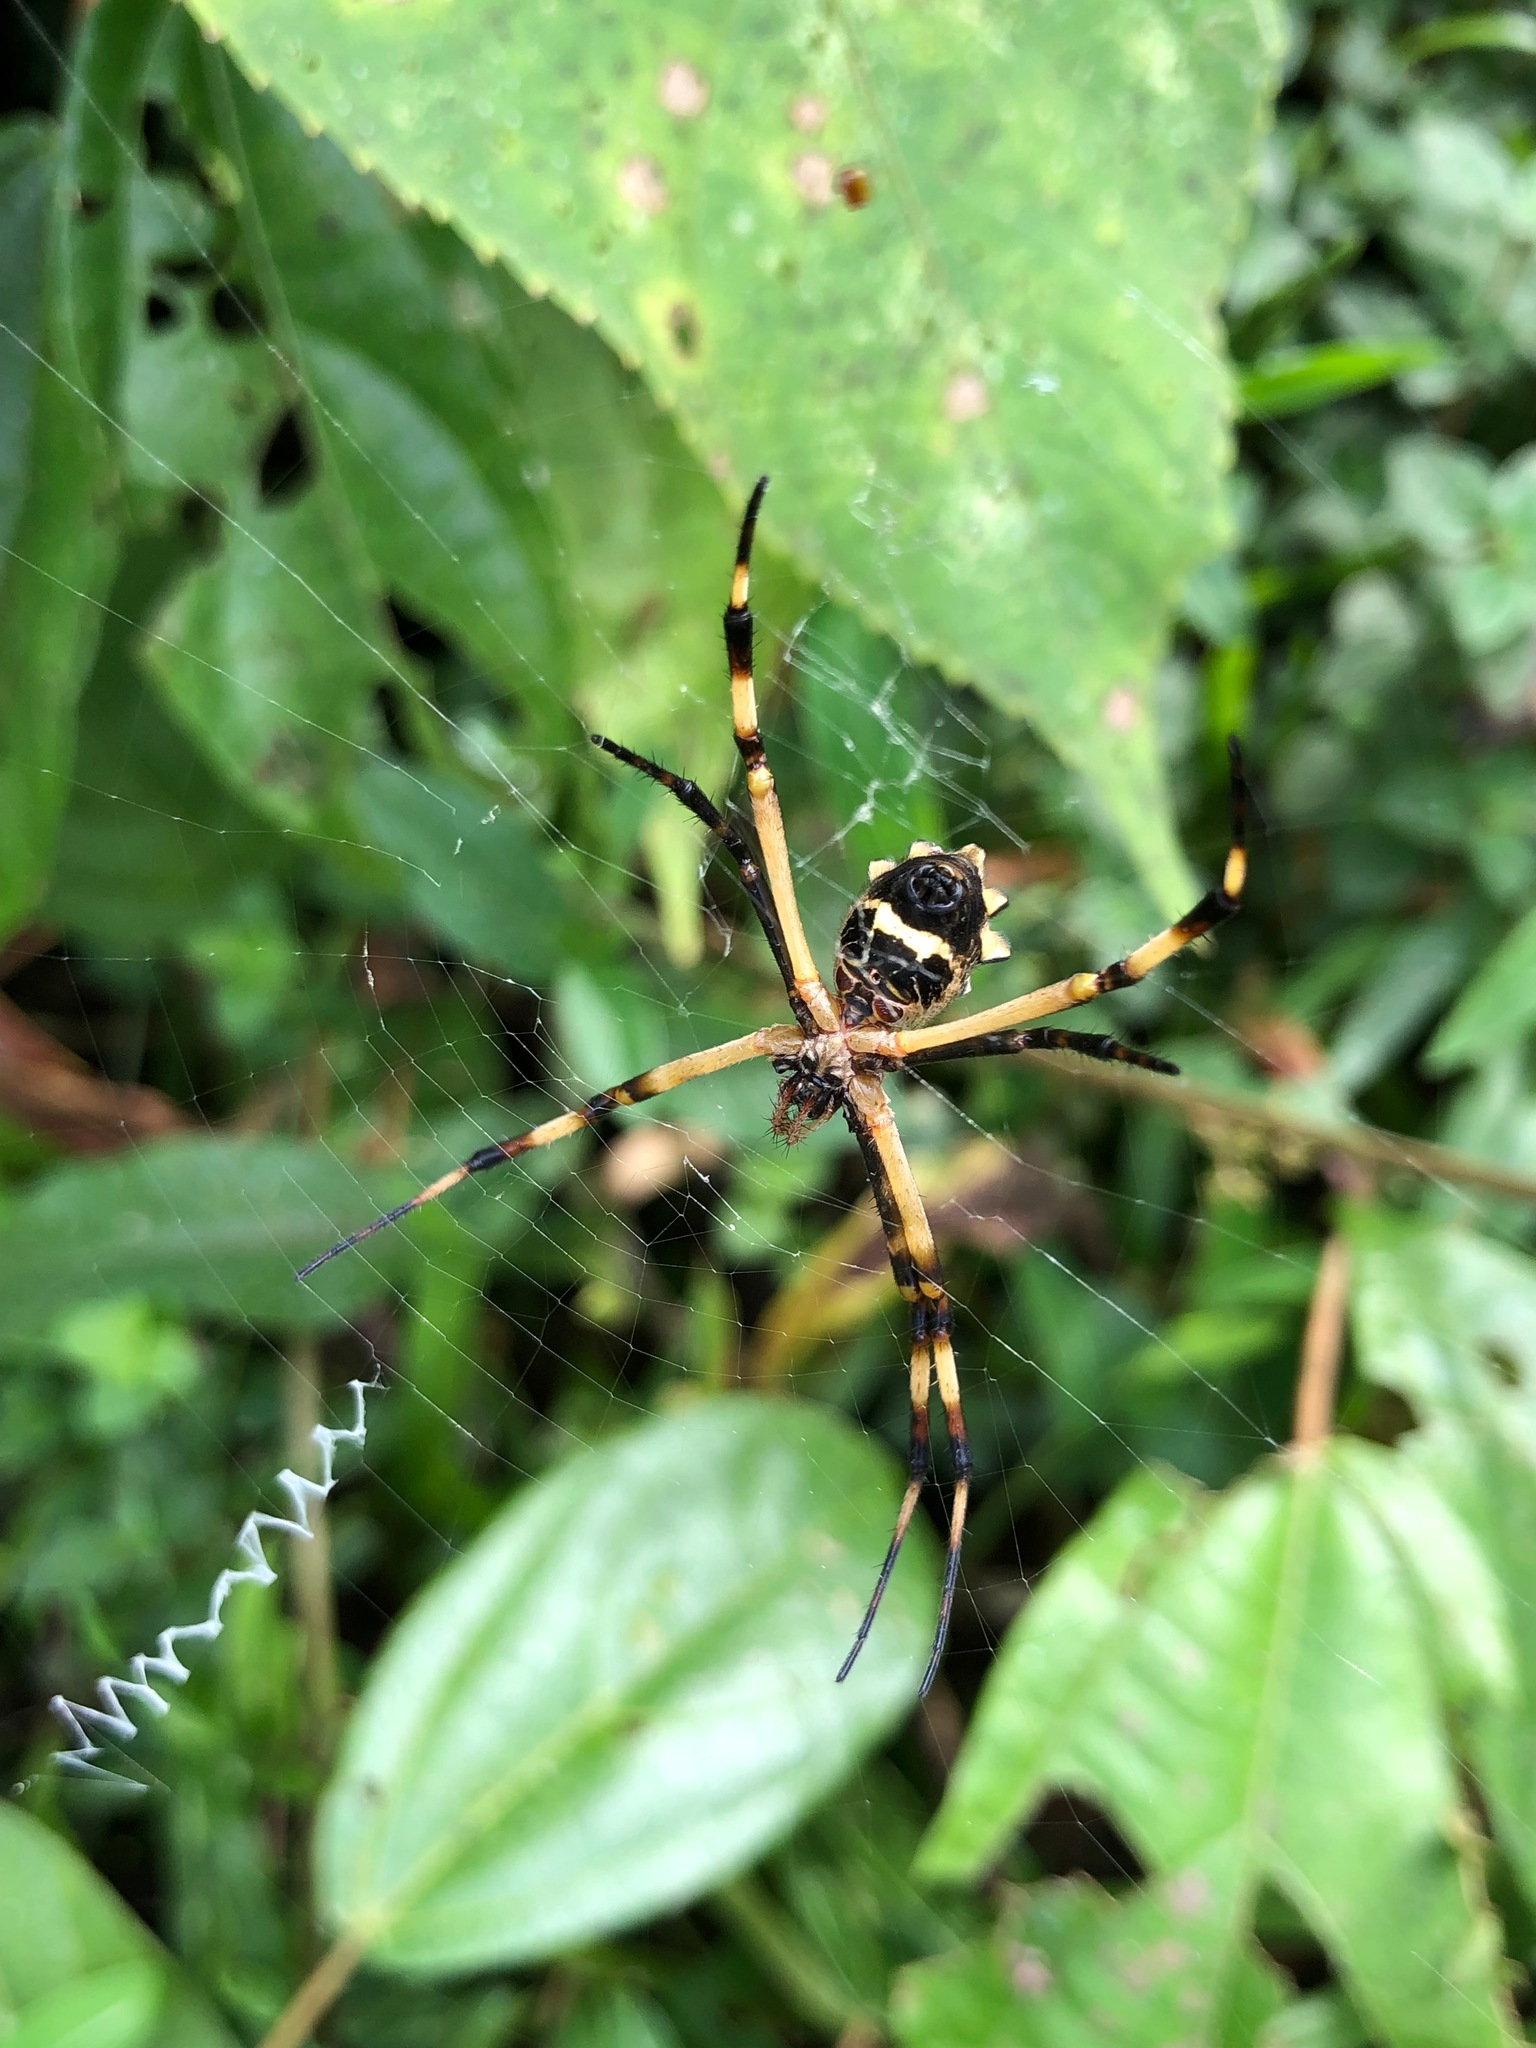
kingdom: Animalia
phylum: Arthropoda
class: Arachnida
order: Araneae
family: Araneidae
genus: Argiope
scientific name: Argiope argentata
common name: Orb weavers
